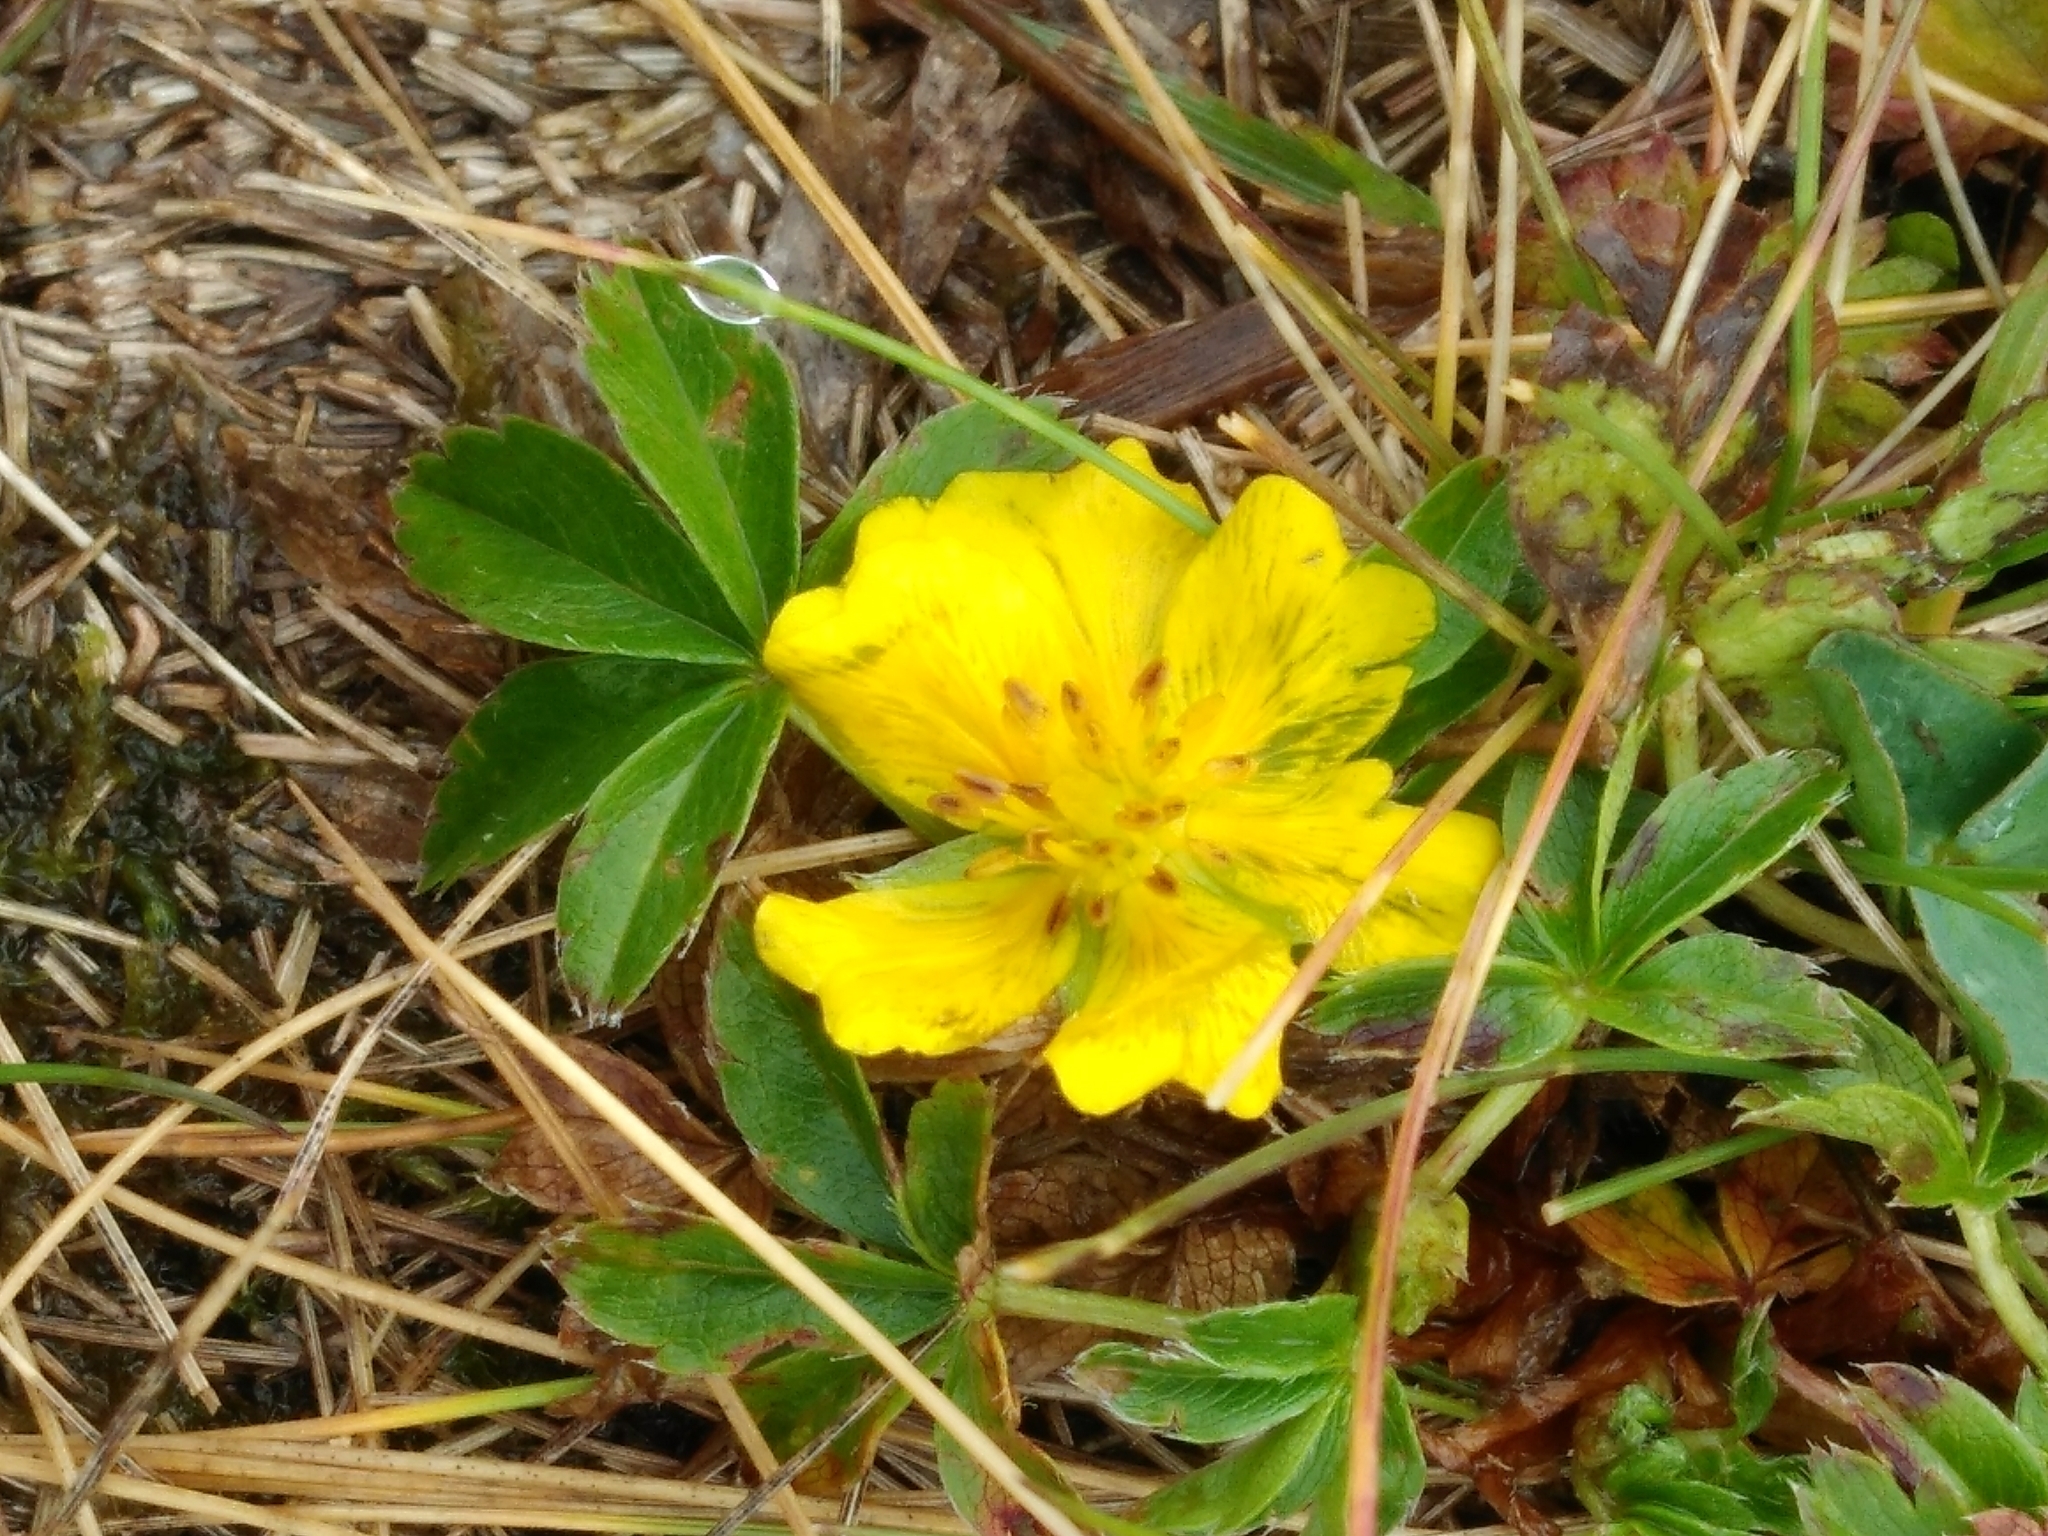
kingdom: Plantae
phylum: Tracheophyta
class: Magnoliopsida
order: Rosales
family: Rosaceae
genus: Potentilla
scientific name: Potentilla aurea
